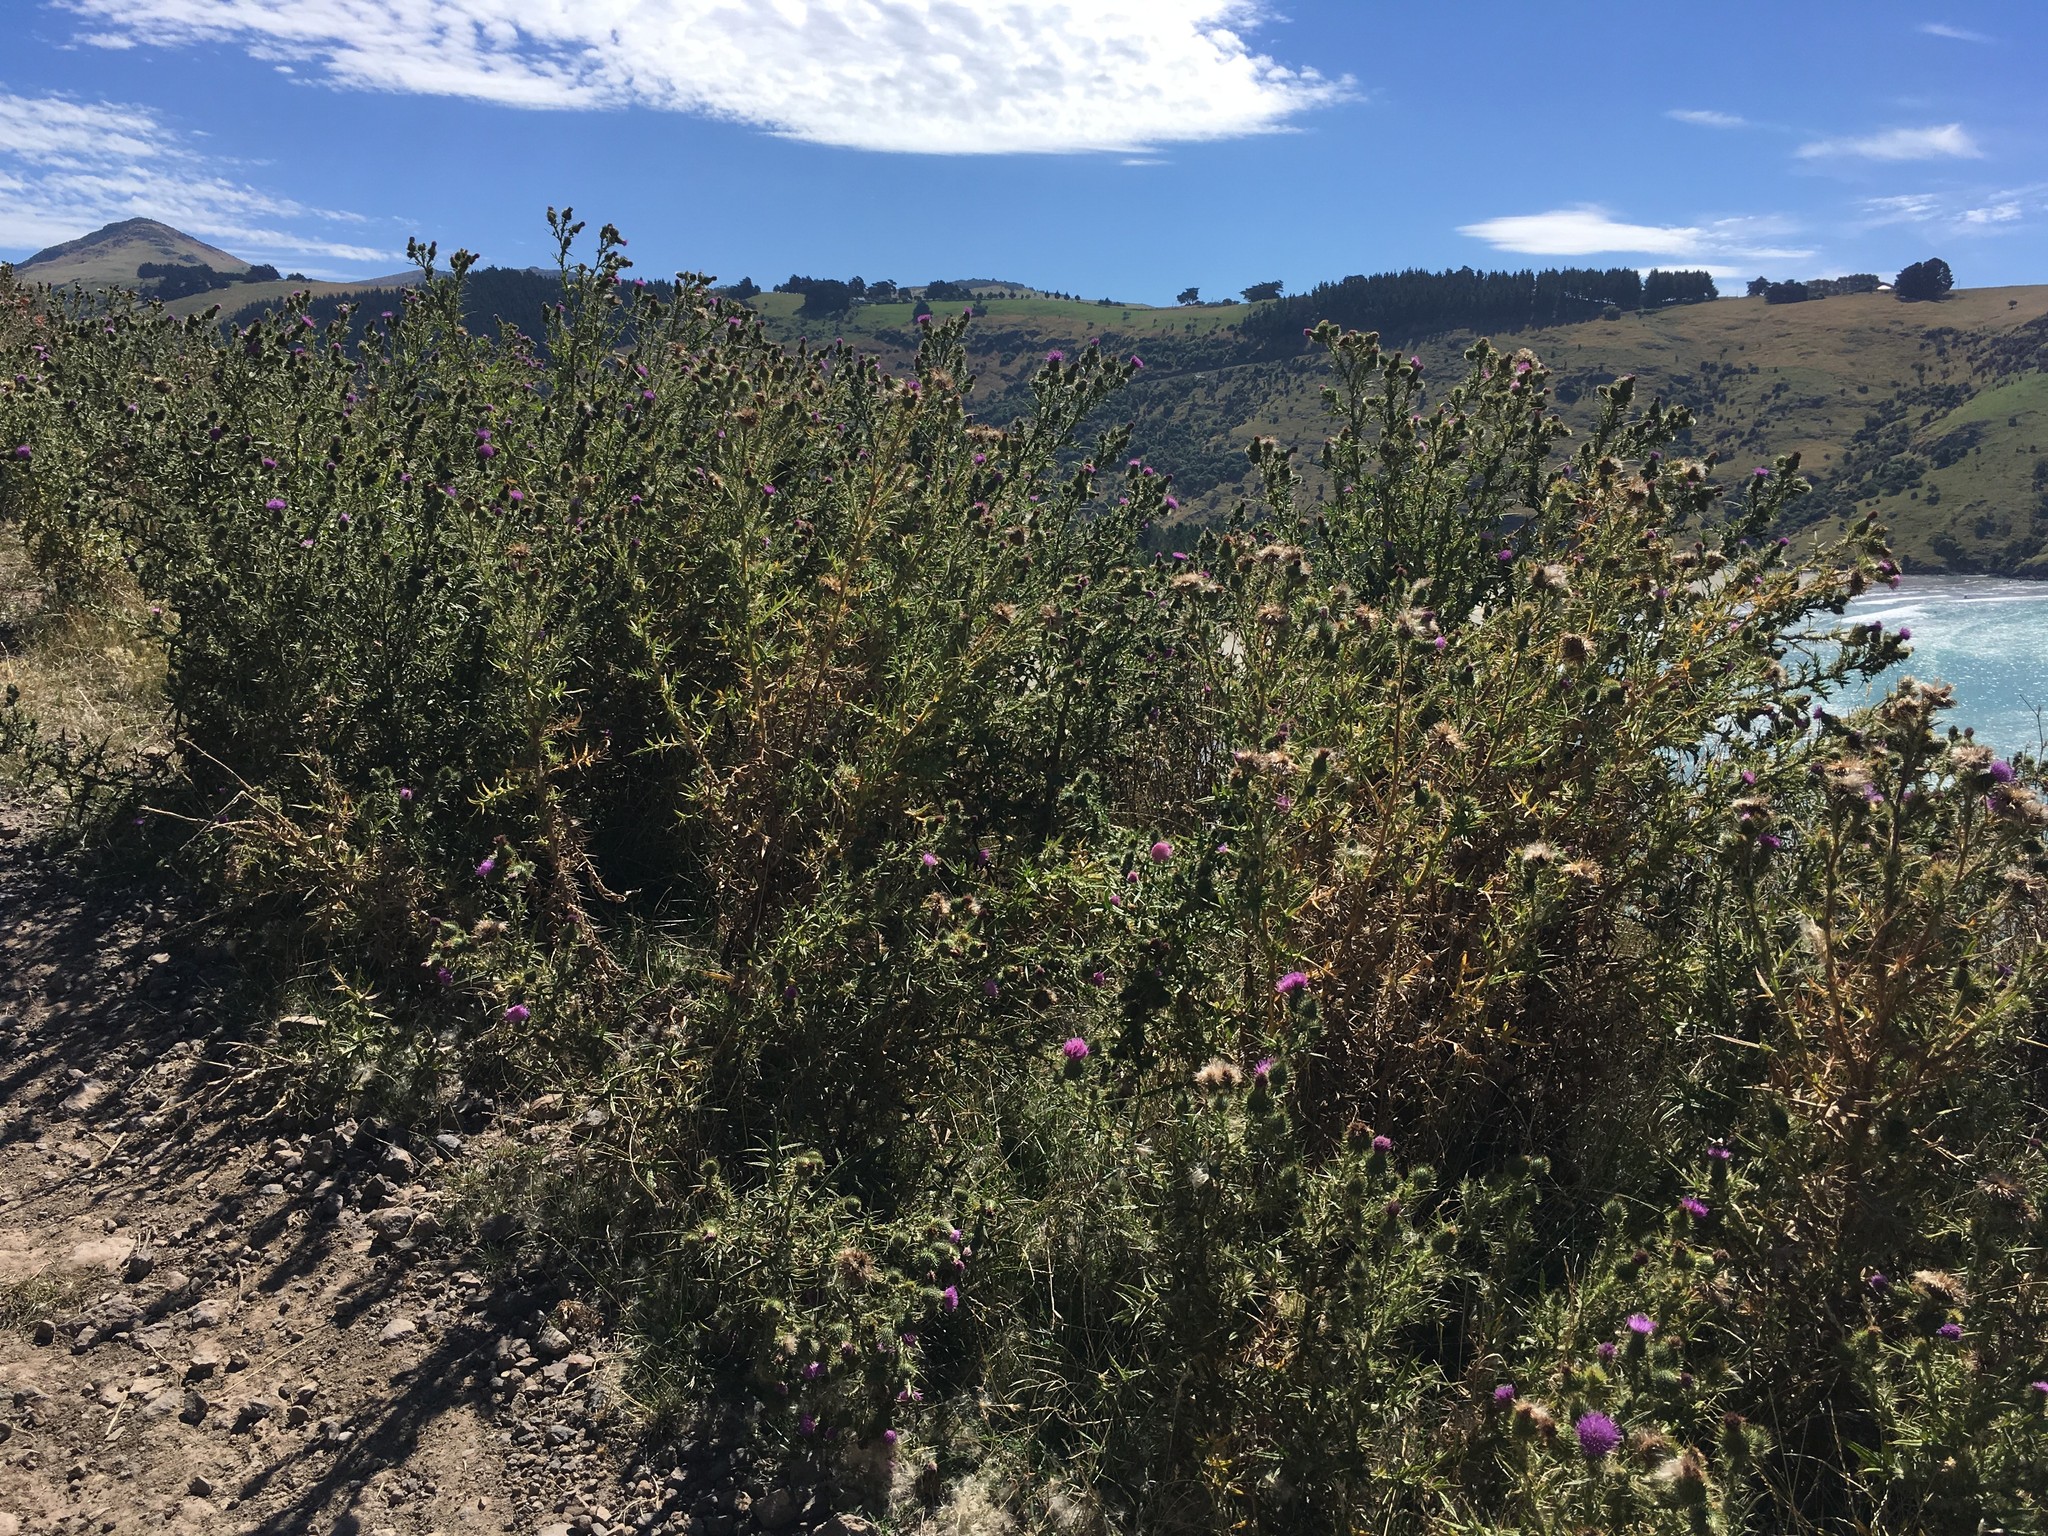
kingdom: Plantae
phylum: Tracheophyta
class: Magnoliopsida
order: Asterales
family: Asteraceae
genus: Cirsium
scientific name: Cirsium vulgare
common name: Bull thistle
